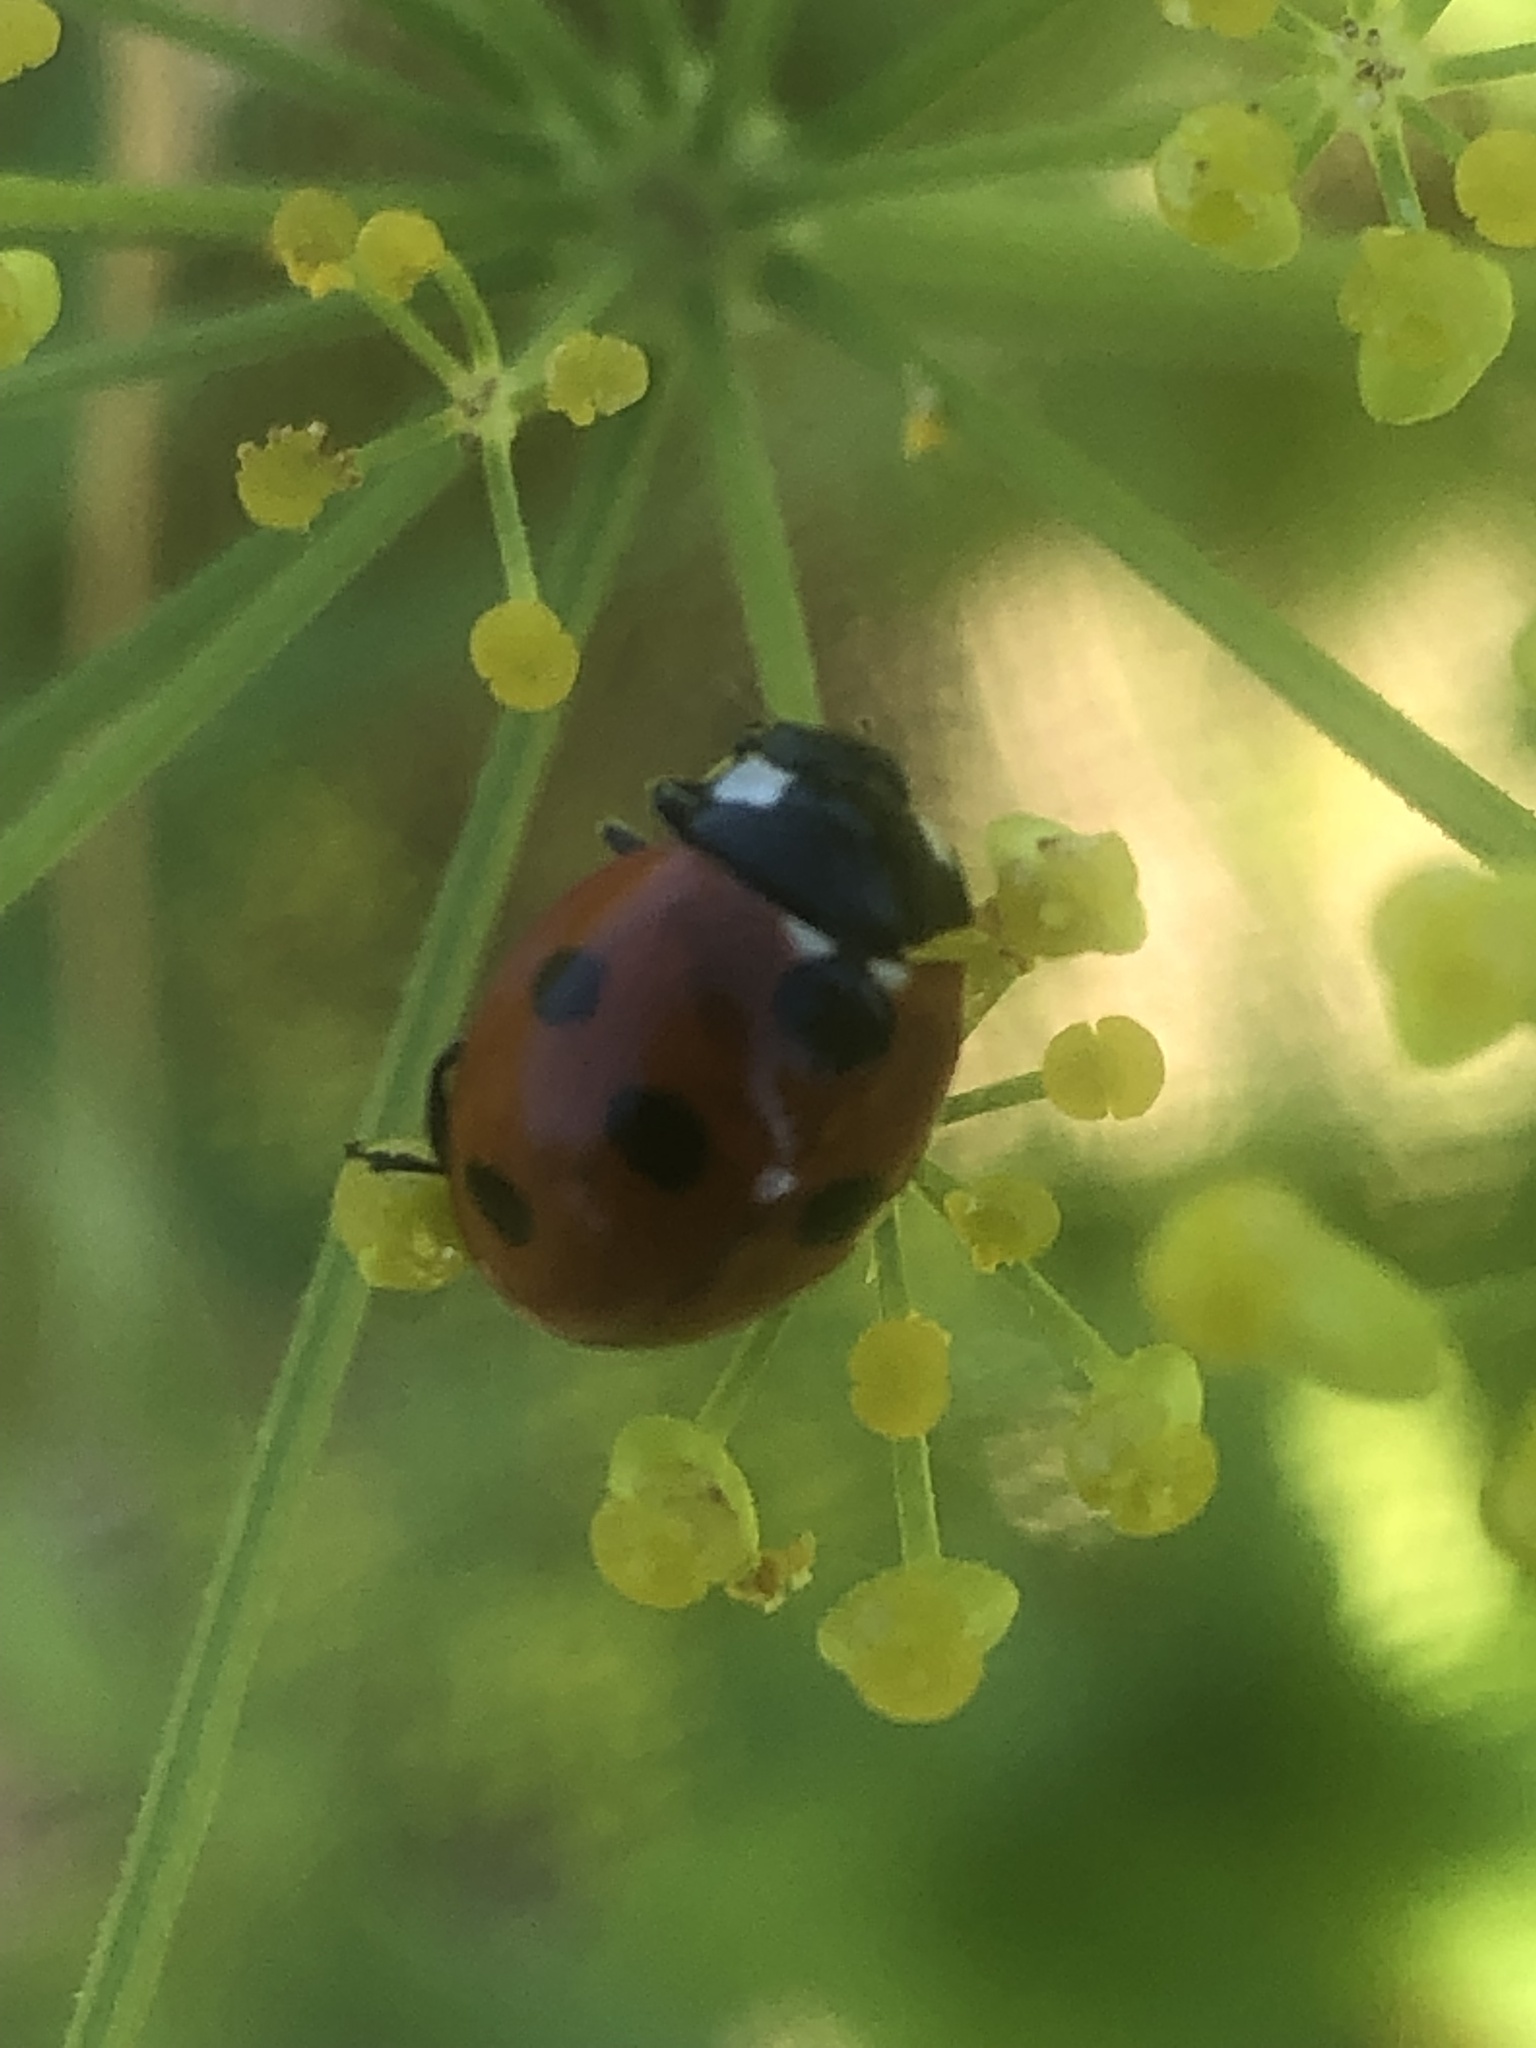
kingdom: Animalia
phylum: Arthropoda
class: Insecta
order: Coleoptera
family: Coccinellidae
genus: Coccinella
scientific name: Coccinella septempunctata
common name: Sevenspotted lady beetle
